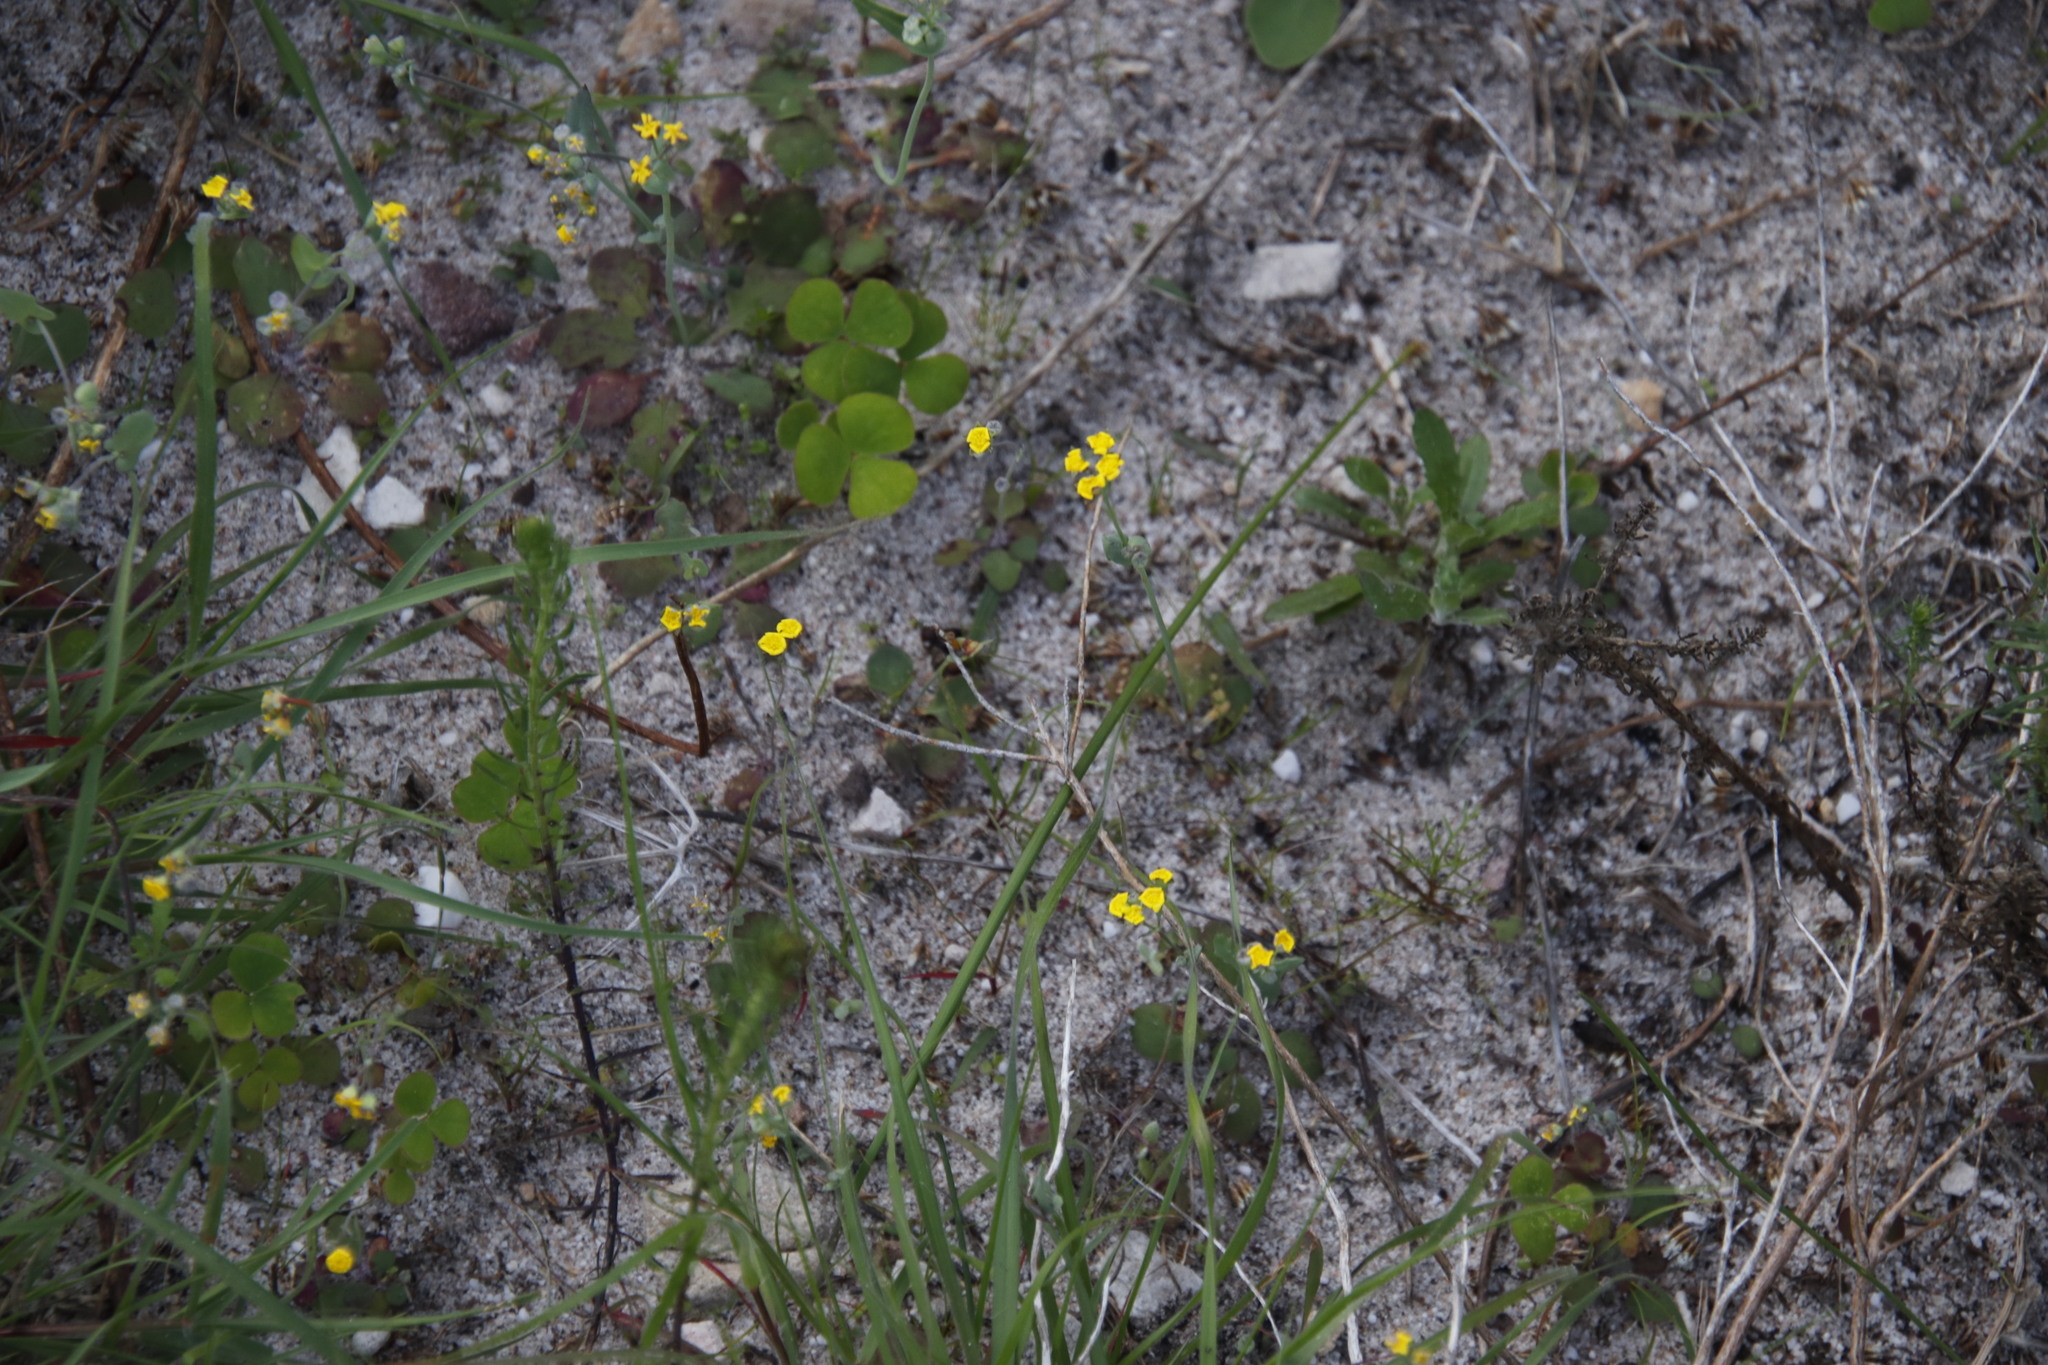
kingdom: Plantae
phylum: Tracheophyta
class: Magnoliopsida
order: Asterales
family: Asteraceae
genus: Gymnodiscus
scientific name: Gymnodiscus capillaris
